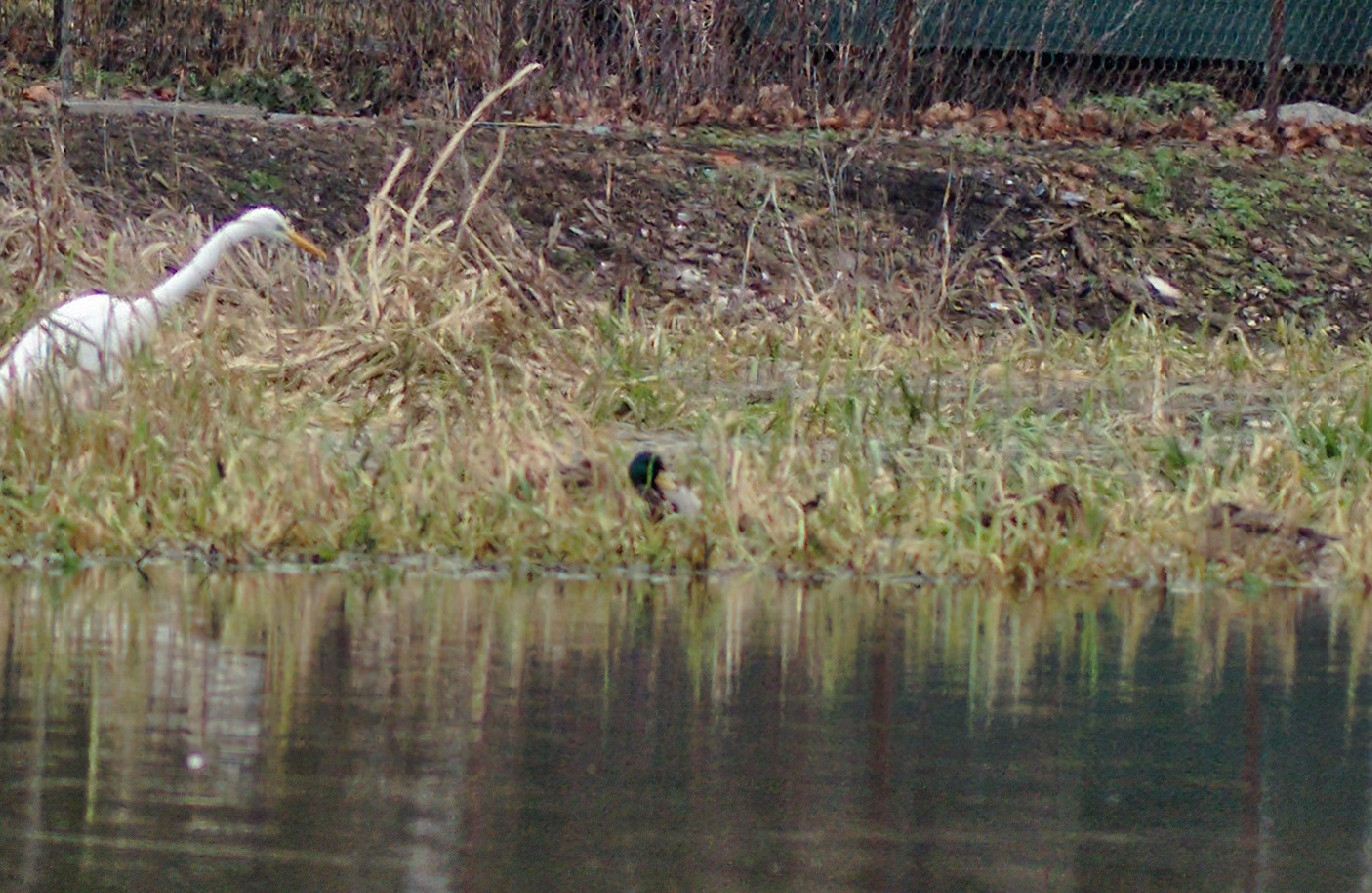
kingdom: Animalia
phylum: Chordata
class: Aves
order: Anseriformes
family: Anatidae
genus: Anas
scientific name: Anas platyrhynchos
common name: Mallard
